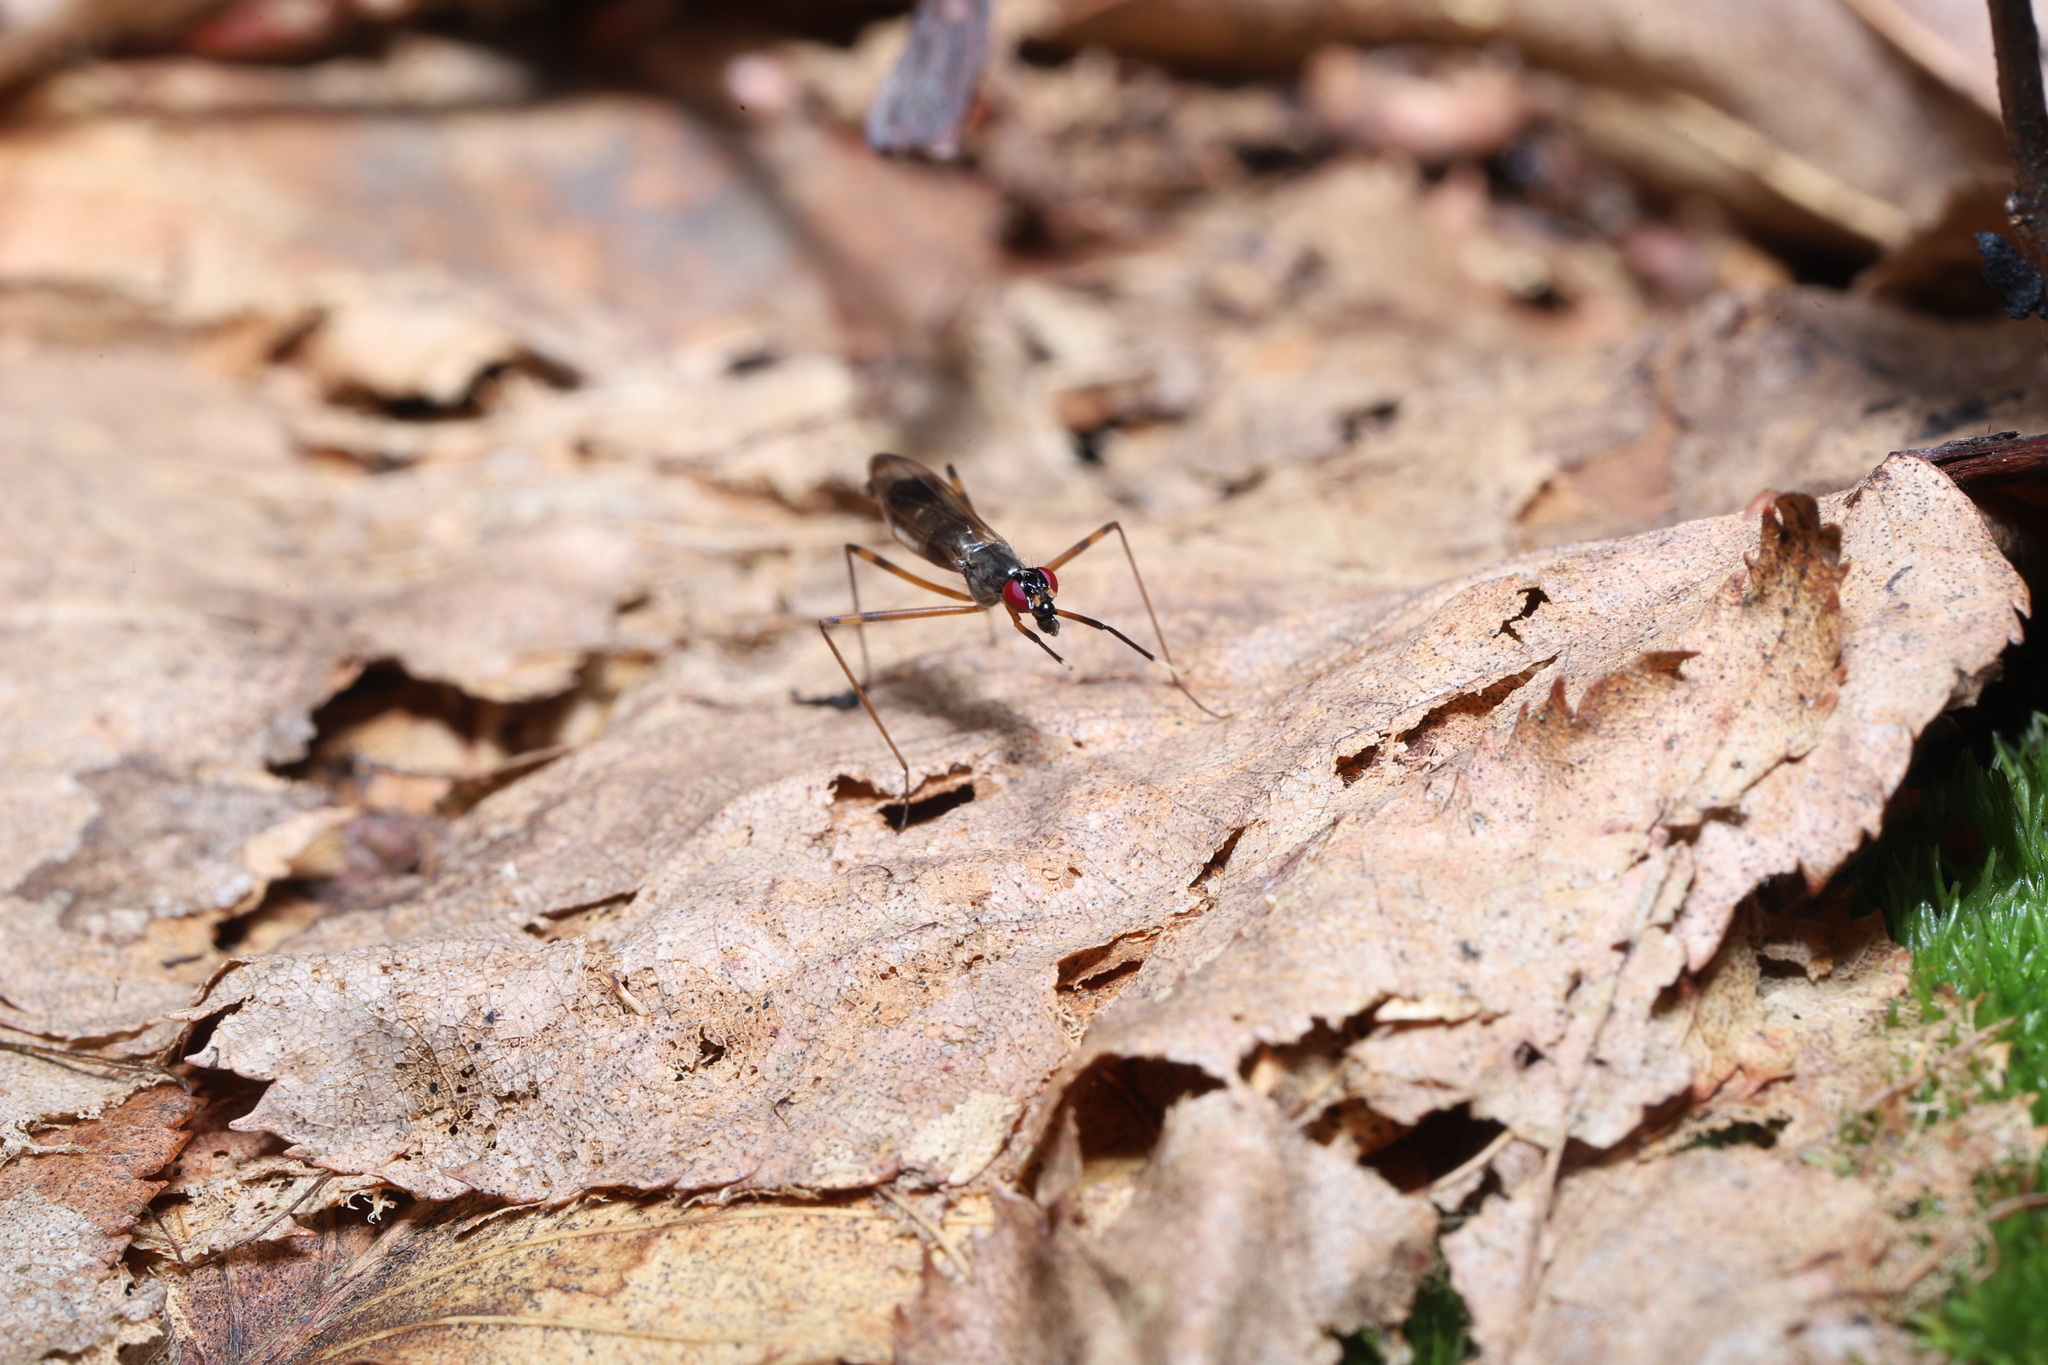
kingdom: Animalia
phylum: Arthropoda
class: Insecta
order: Diptera
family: Micropezidae
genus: Rainieria
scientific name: Rainieria antennaepes
